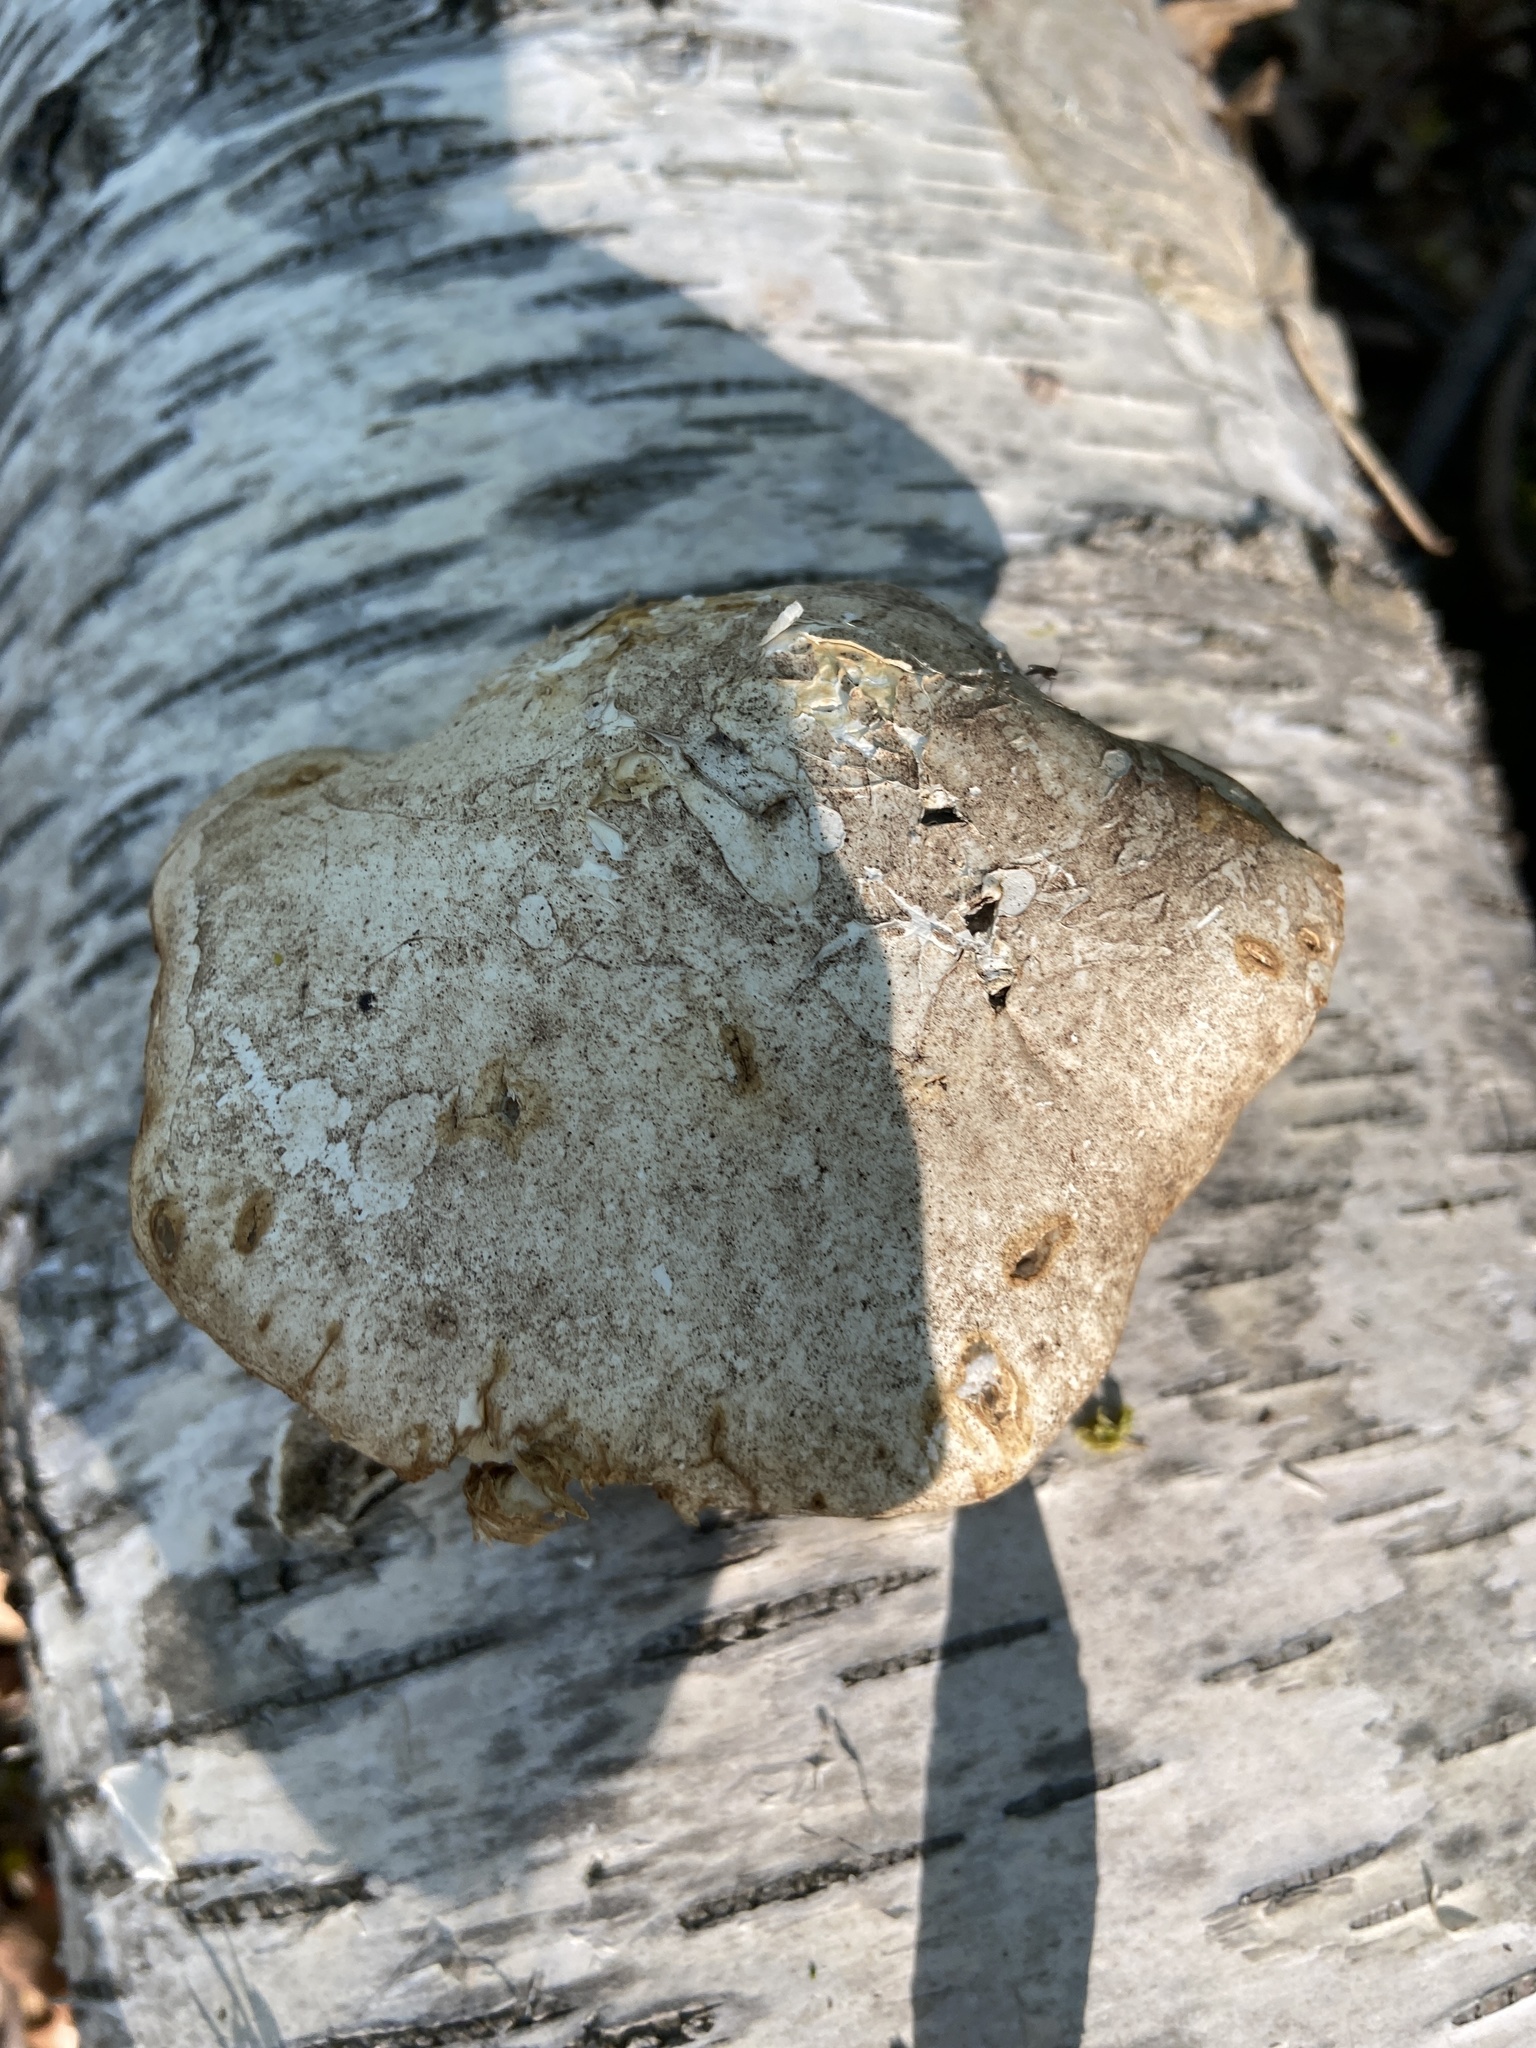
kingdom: Fungi
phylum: Basidiomycota
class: Agaricomycetes
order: Polyporales
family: Fomitopsidaceae
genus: Fomitopsis
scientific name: Fomitopsis betulina
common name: Birch polypore
